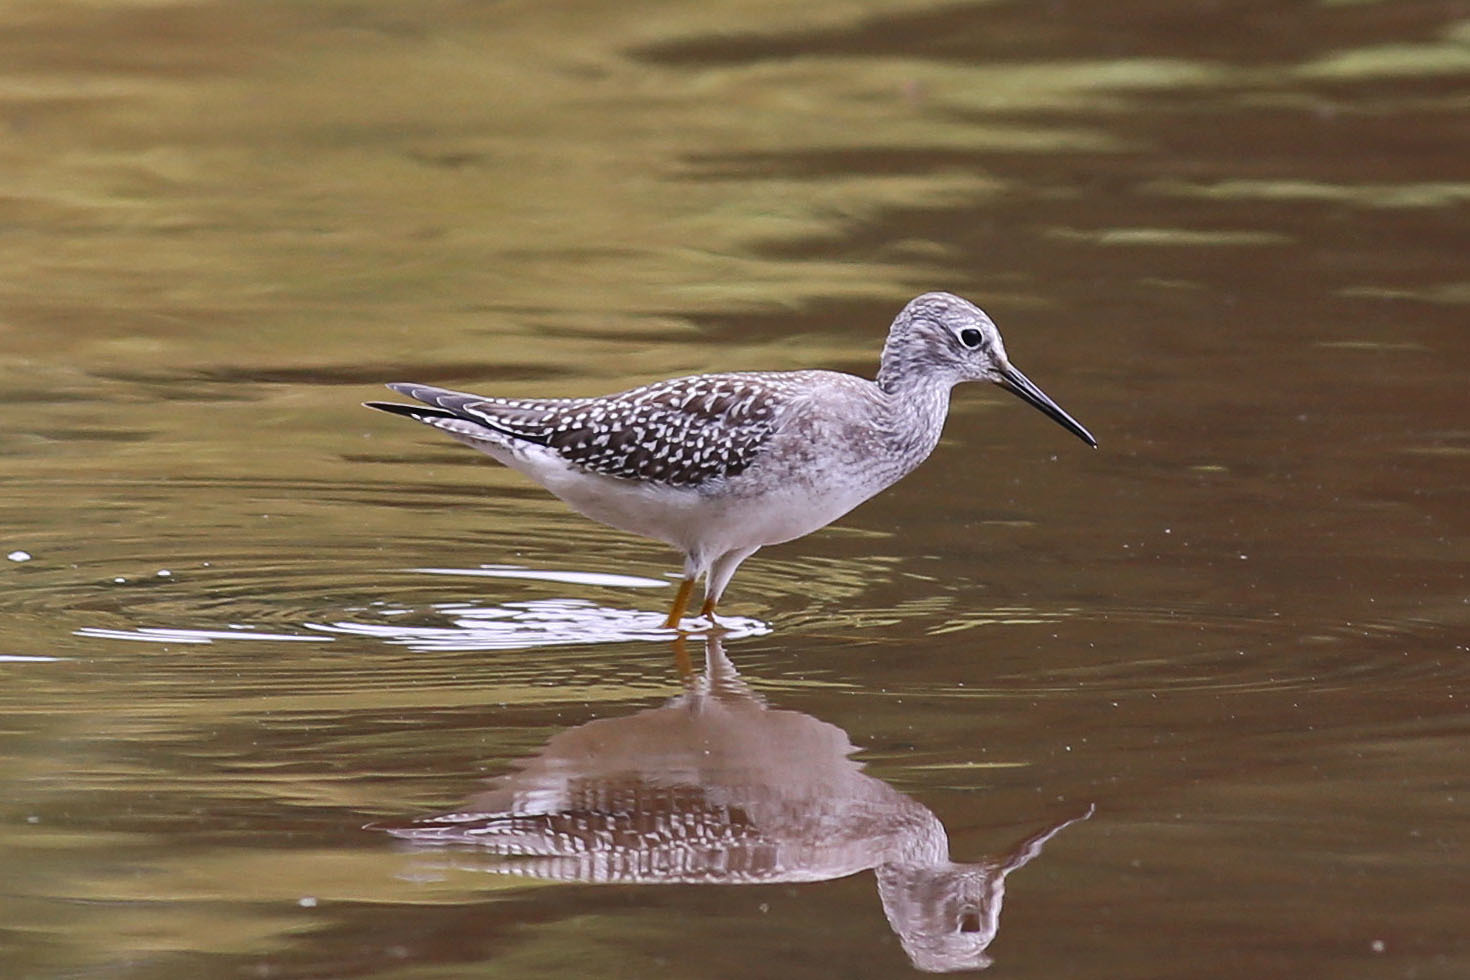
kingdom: Animalia
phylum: Chordata
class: Aves
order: Charadriiformes
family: Scolopacidae
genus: Tringa
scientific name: Tringa flavipes
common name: Lesser yellowlegs
